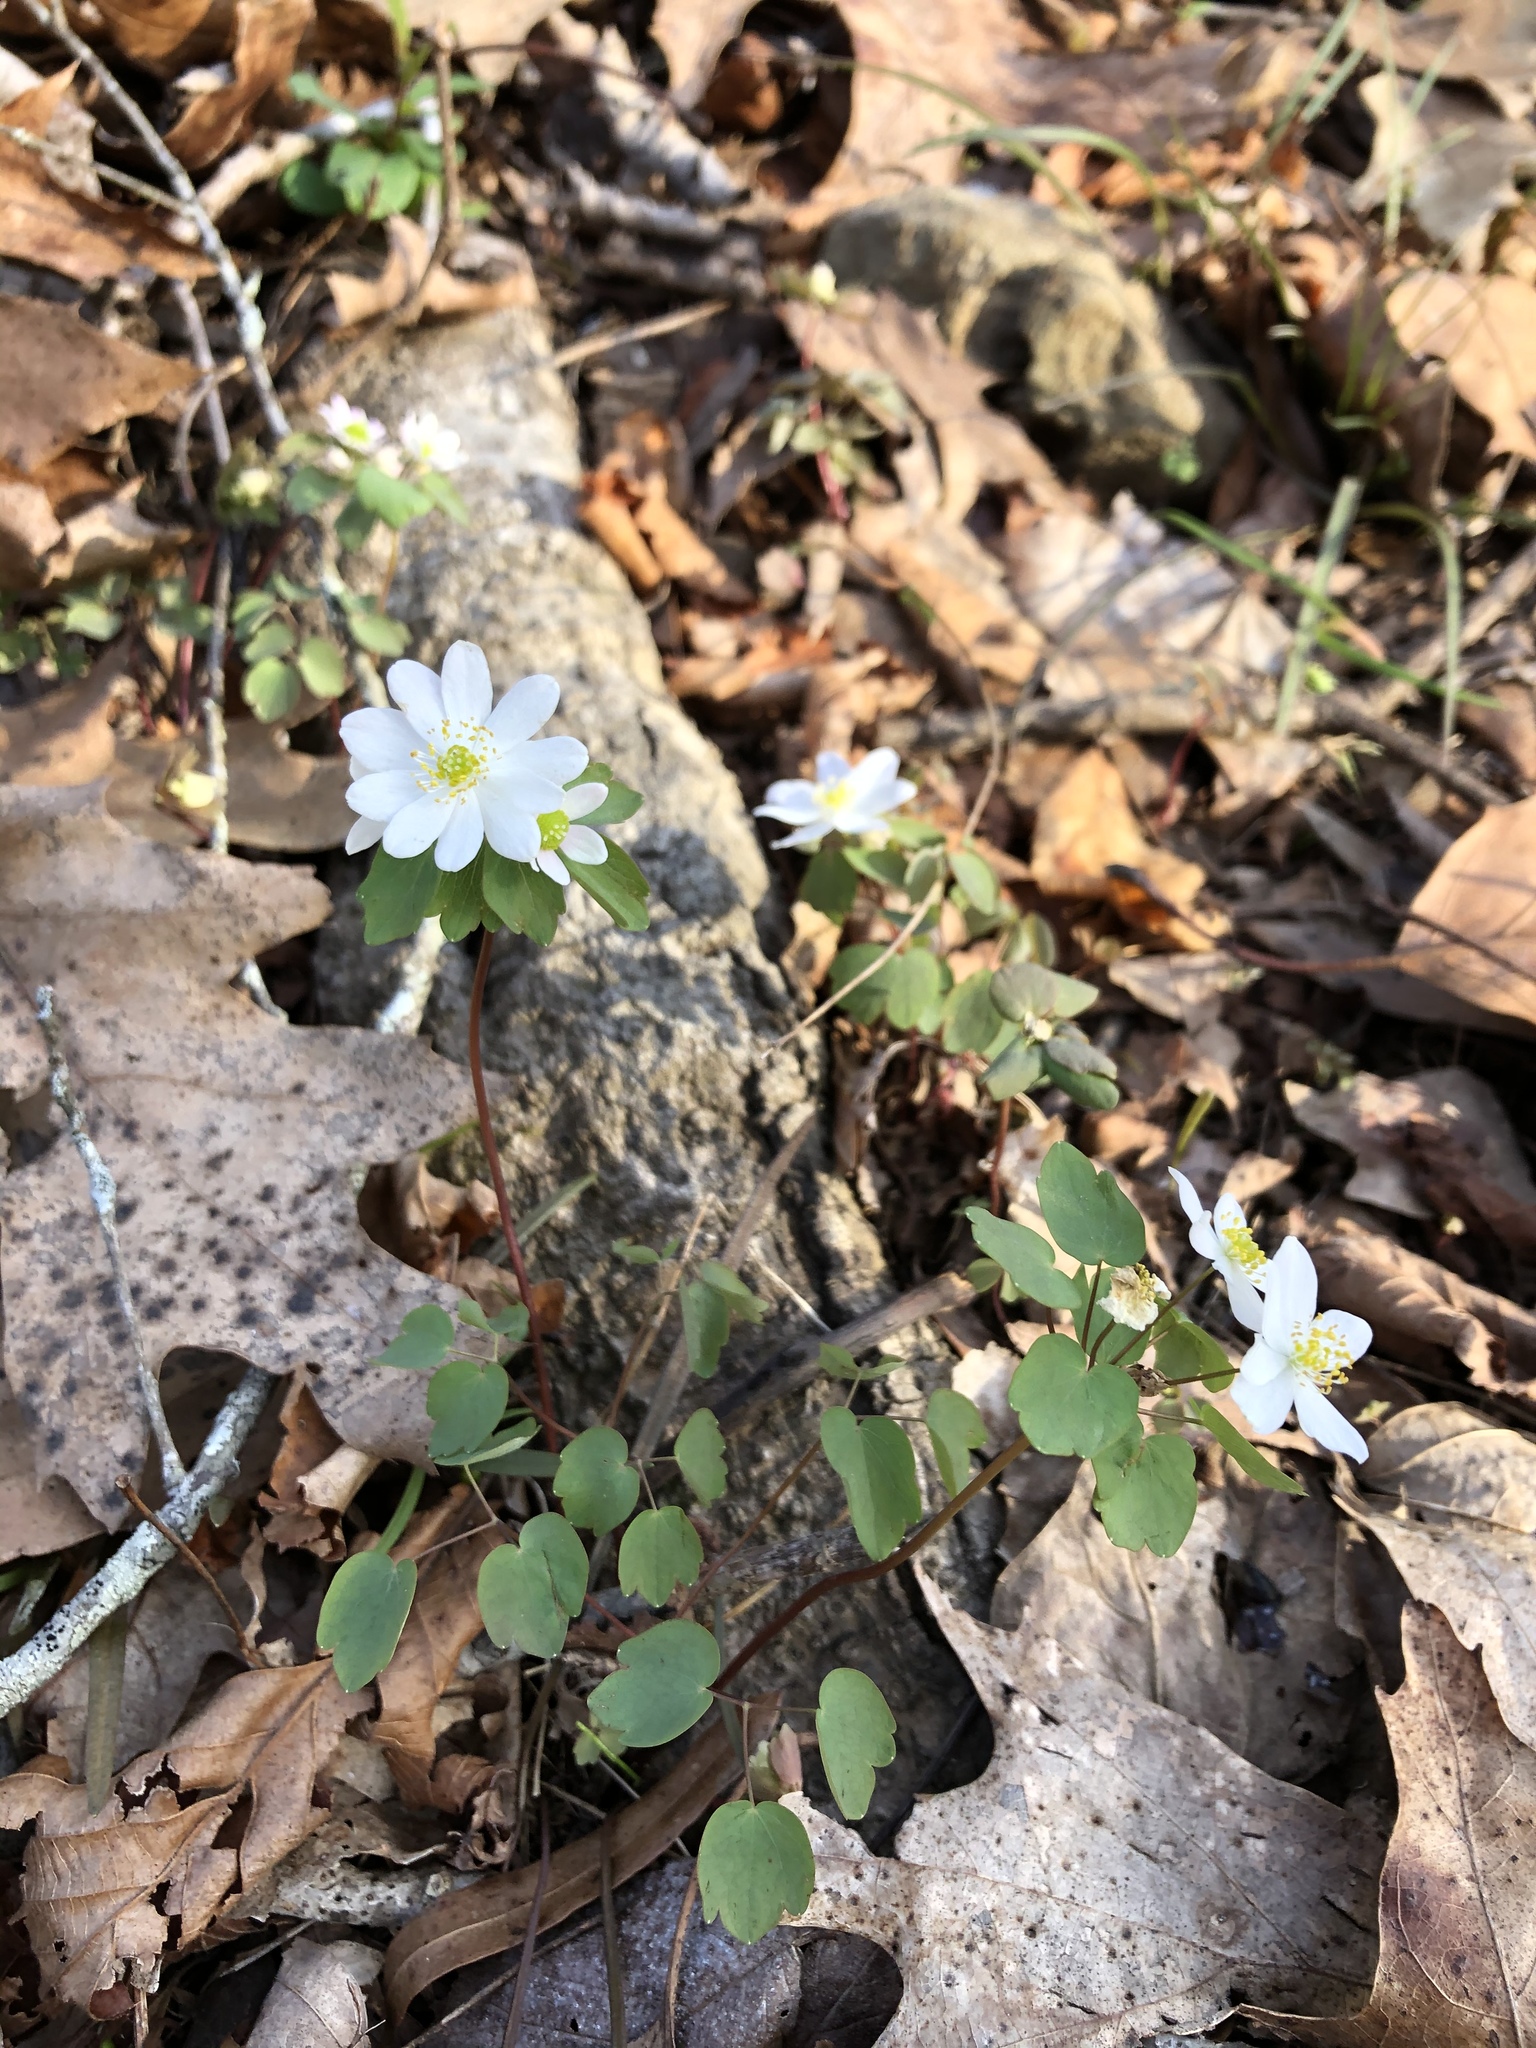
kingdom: Plantae
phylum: Tracheophyta
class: Magnoliopsida
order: Ranunculales
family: Ranunculaceae
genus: Thalictrum
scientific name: Thalictrum thalictroides
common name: Rue-anemone
